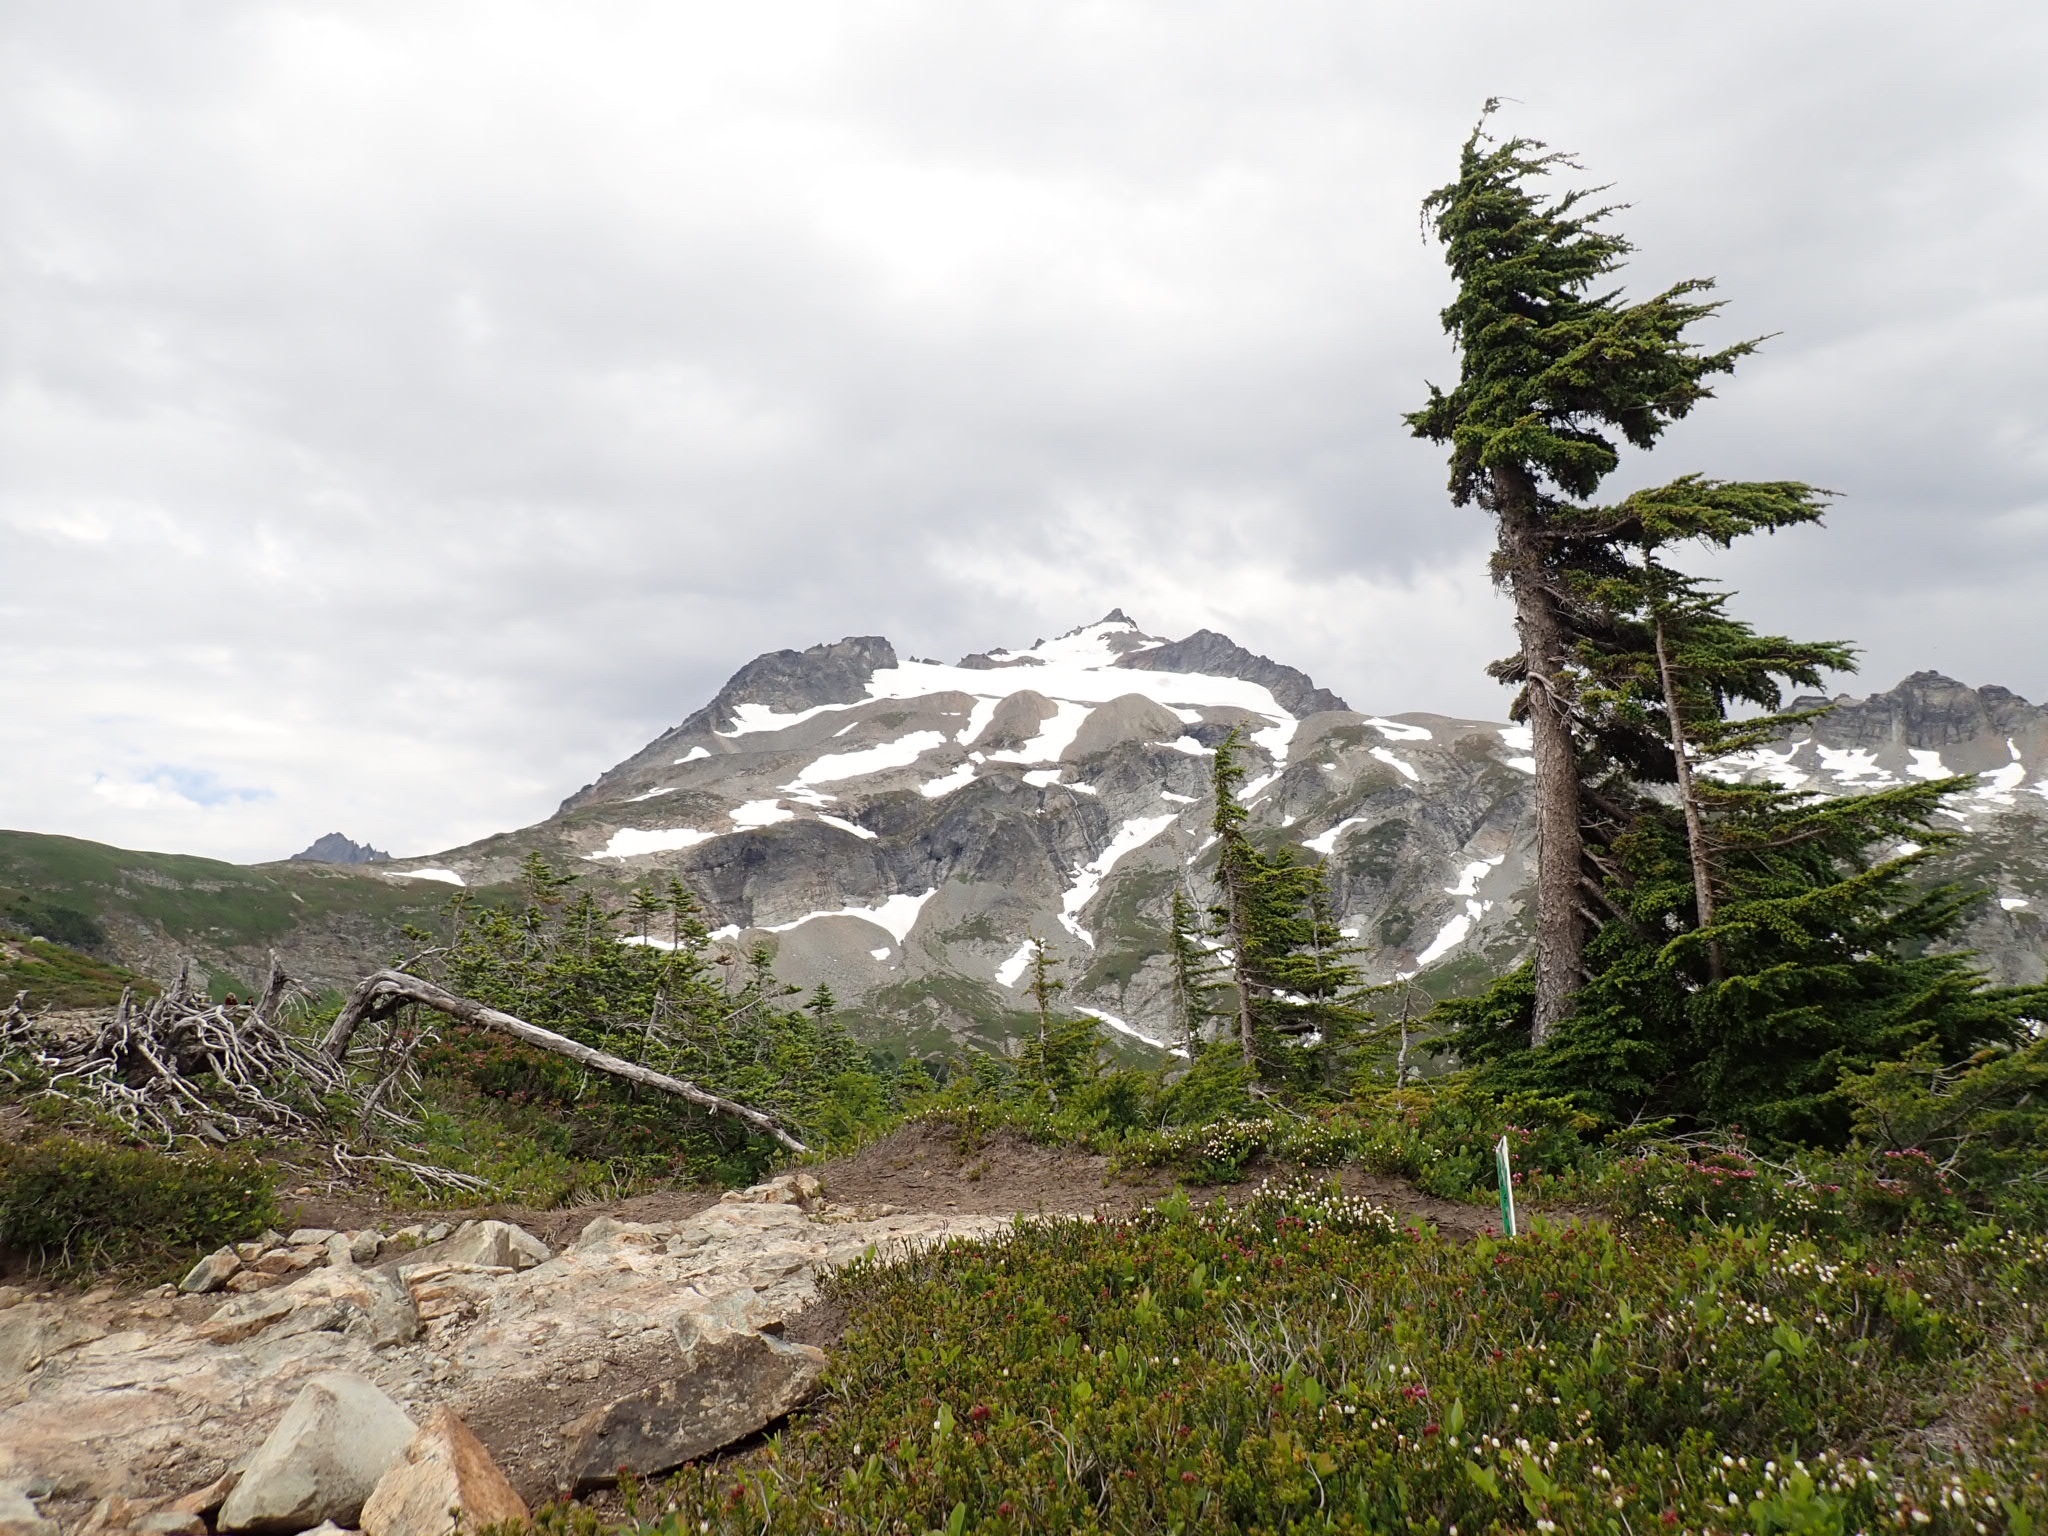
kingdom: Plantae
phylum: Tracheophyta
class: Pinopsida
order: Pinales
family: Pinaceae
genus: Tsuga
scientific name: Tsuga mertensiana
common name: Mountain hemlock
